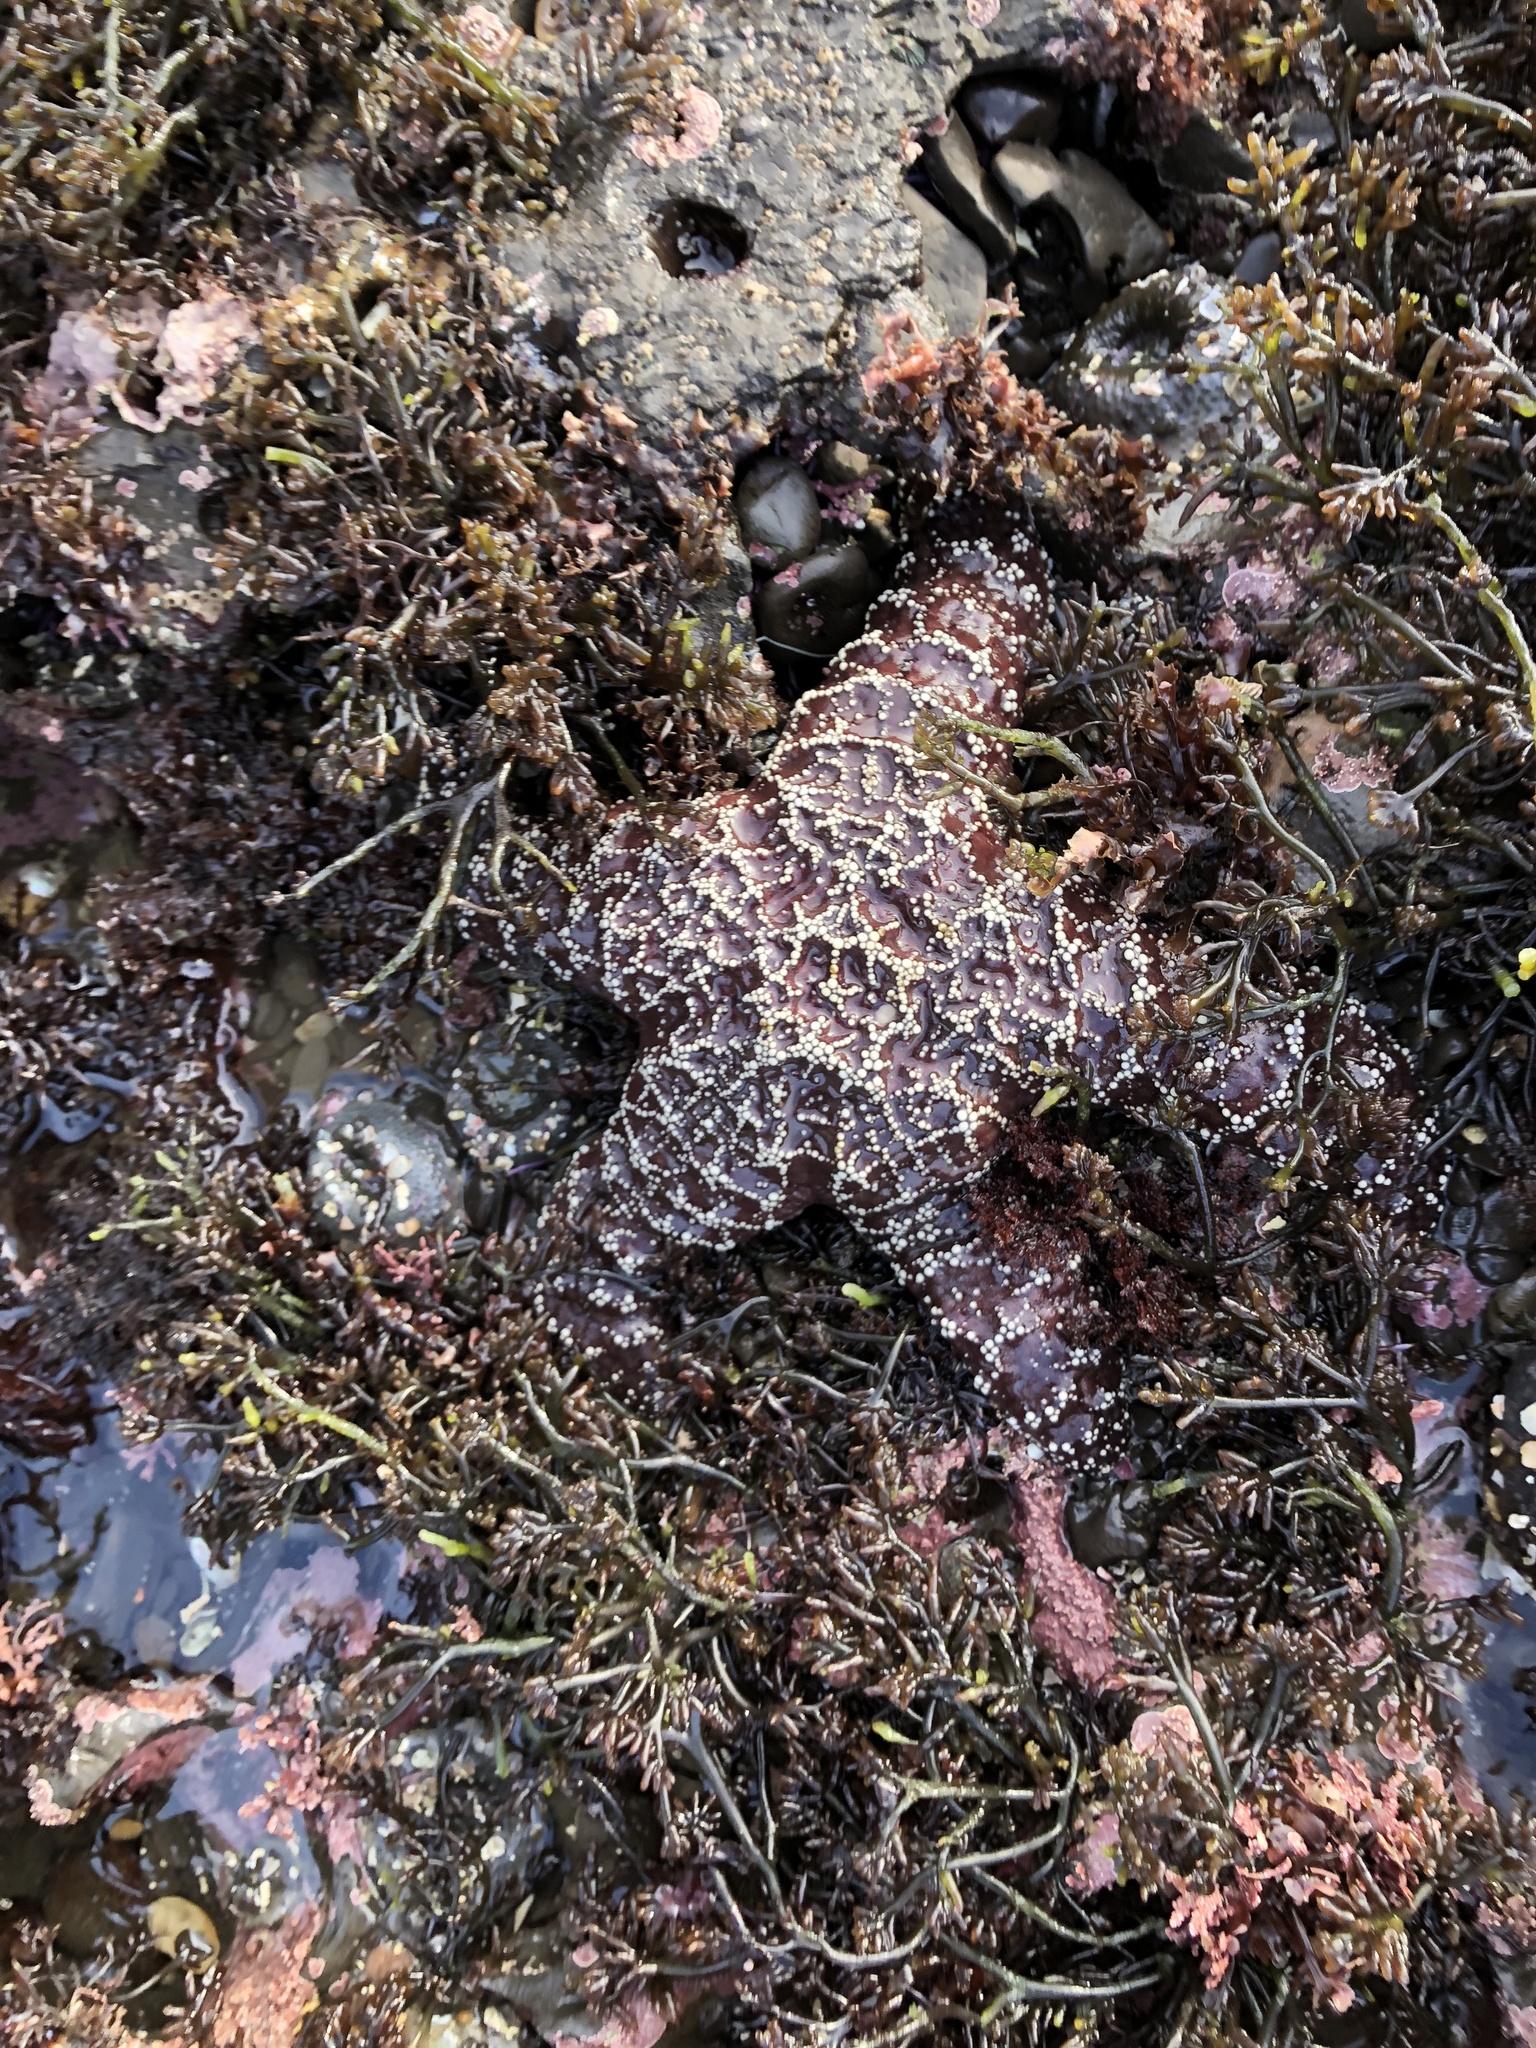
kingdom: Animalia
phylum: Echinodermata
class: Asteroidea
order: Forcipulatida
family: Asteriidae
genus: Pisaster
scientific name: Pisaster ochraceus
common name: Ochre stars
